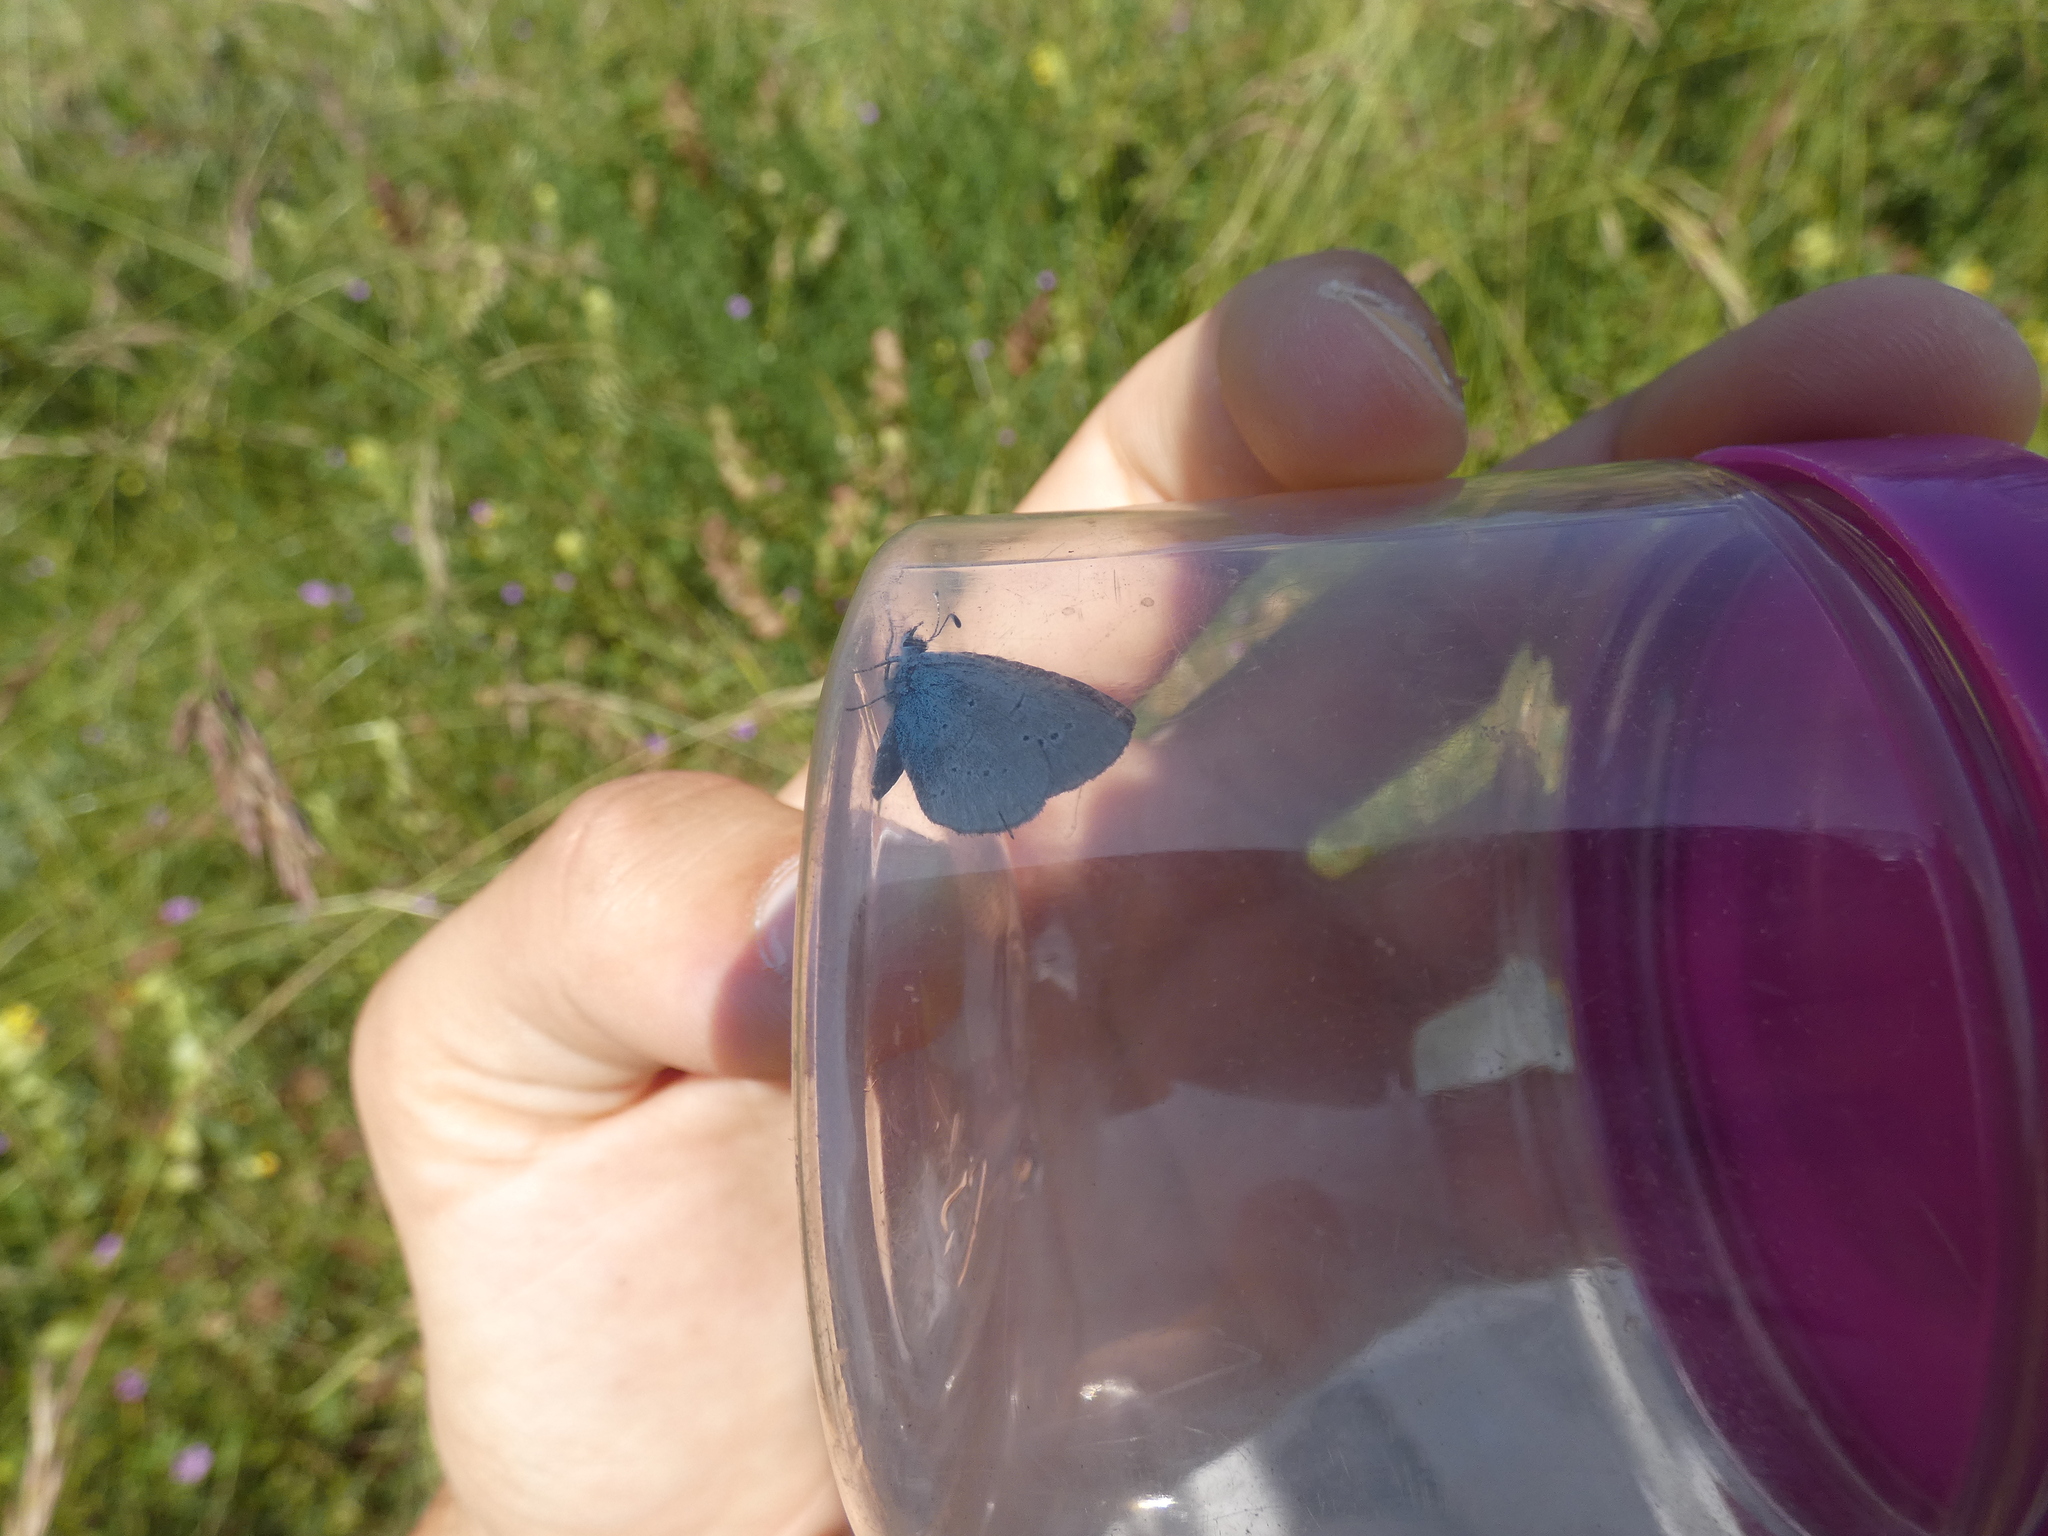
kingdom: Animalia
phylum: Arthropoda
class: Insecta
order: Lepidoptera
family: Lycaenidae
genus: Everes
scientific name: Everes sebrus
